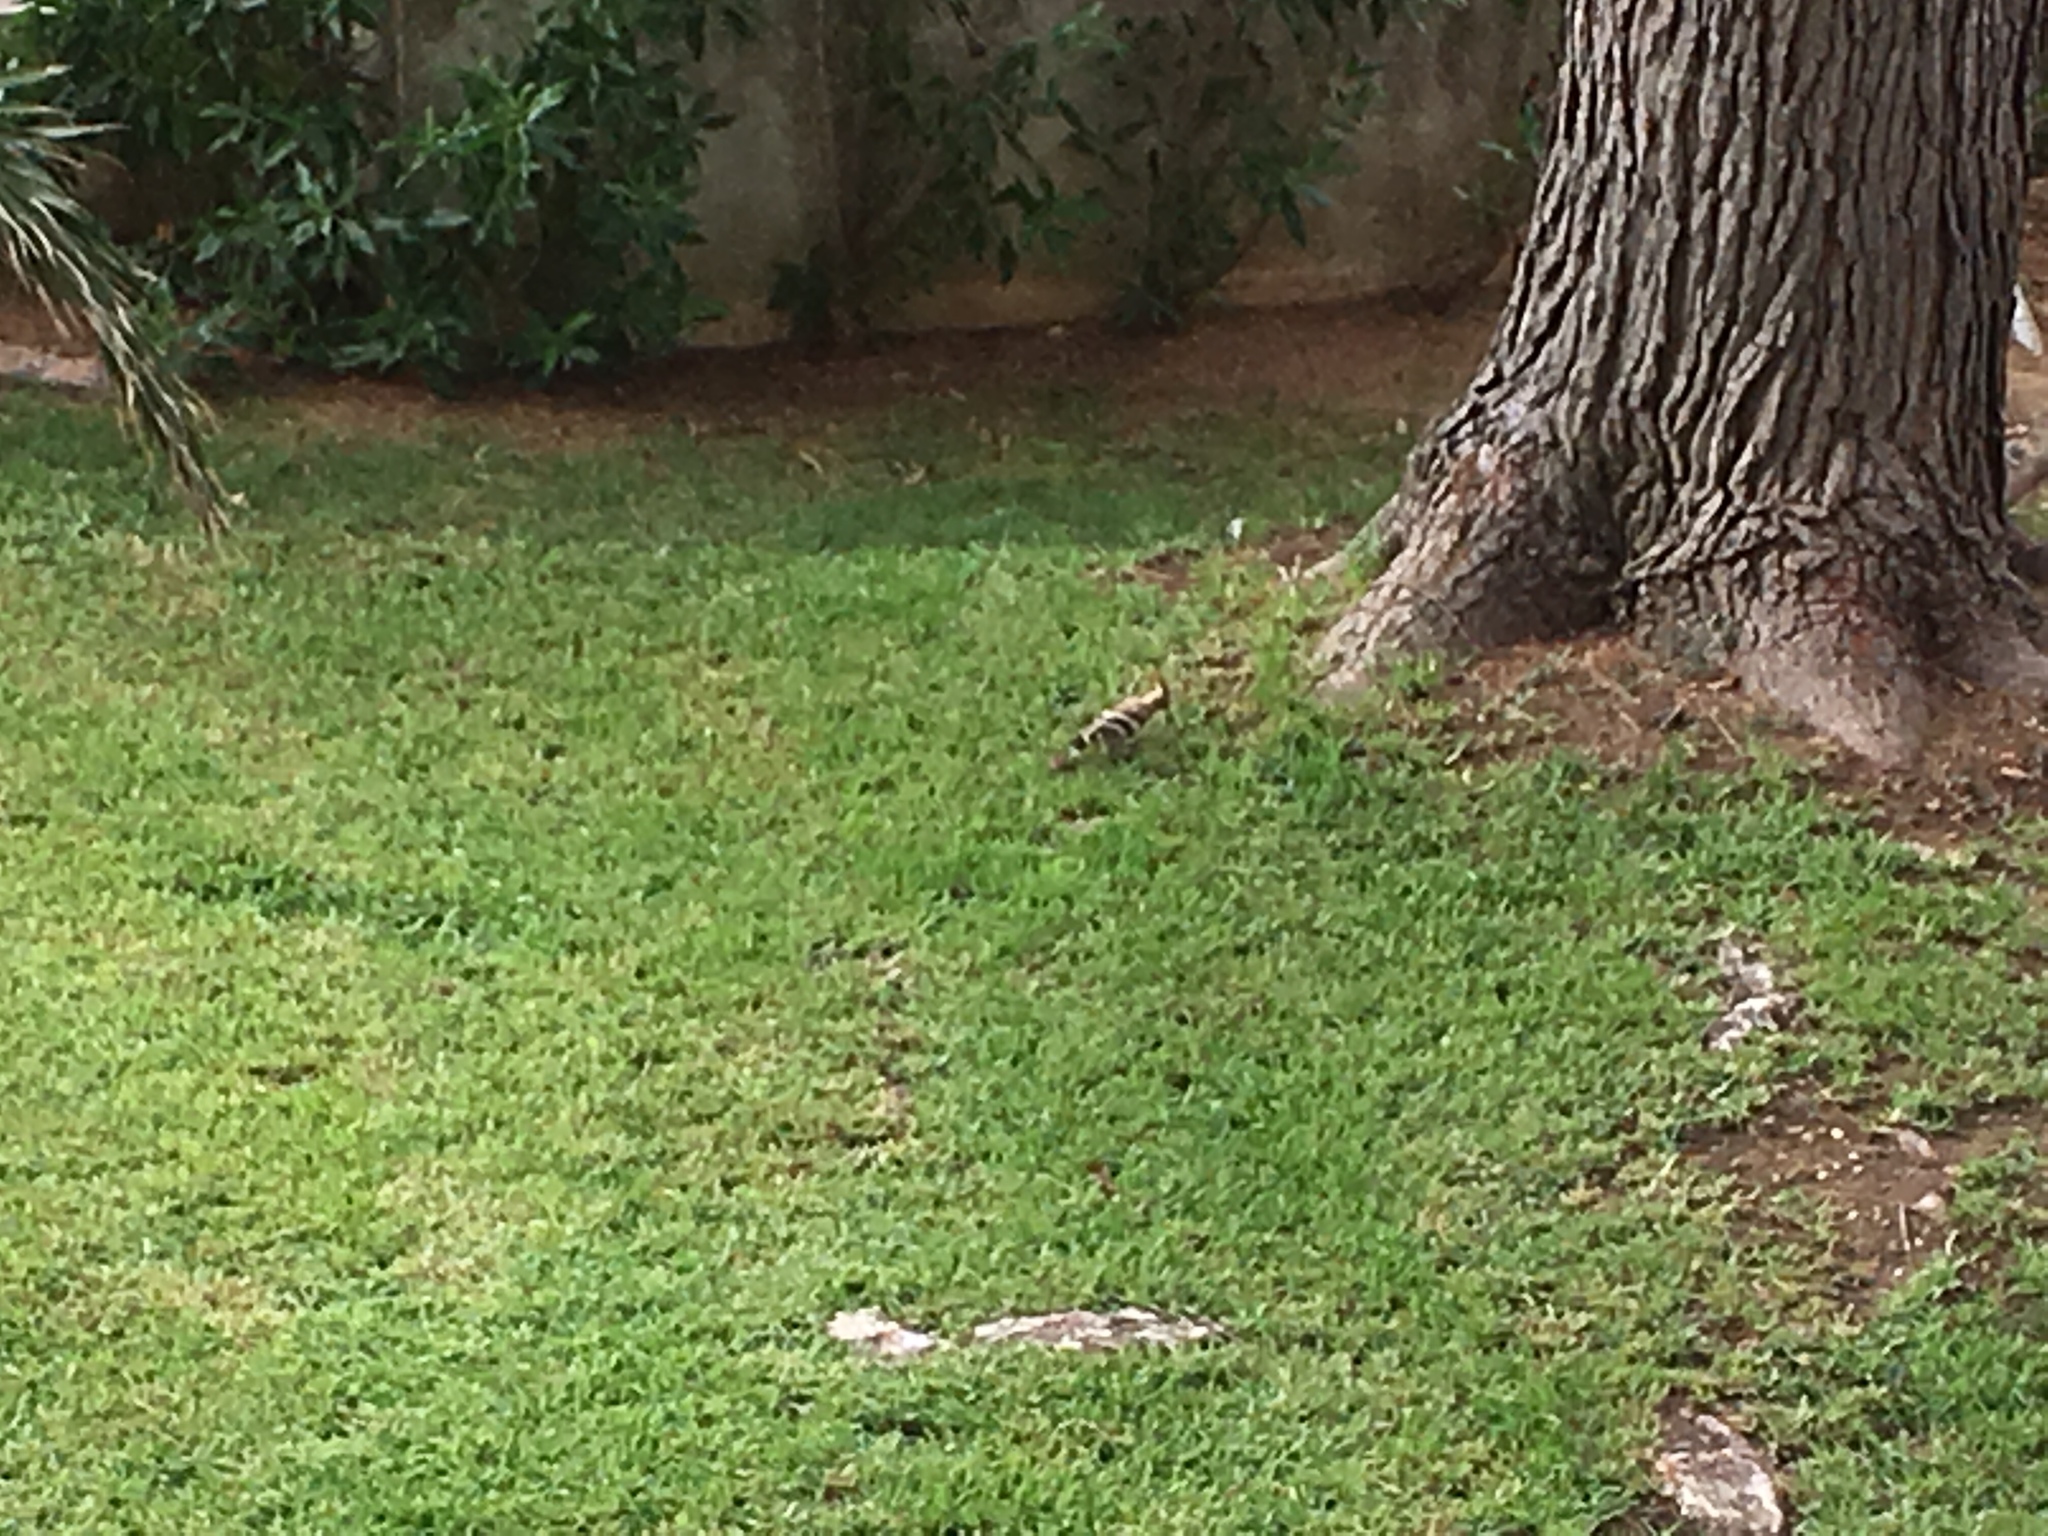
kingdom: Animalia
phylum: Chordata
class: Aves
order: Bucerotiformes
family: Upupidae
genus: Upupa
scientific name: Upupa epops
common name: Eurasian hoopoe
